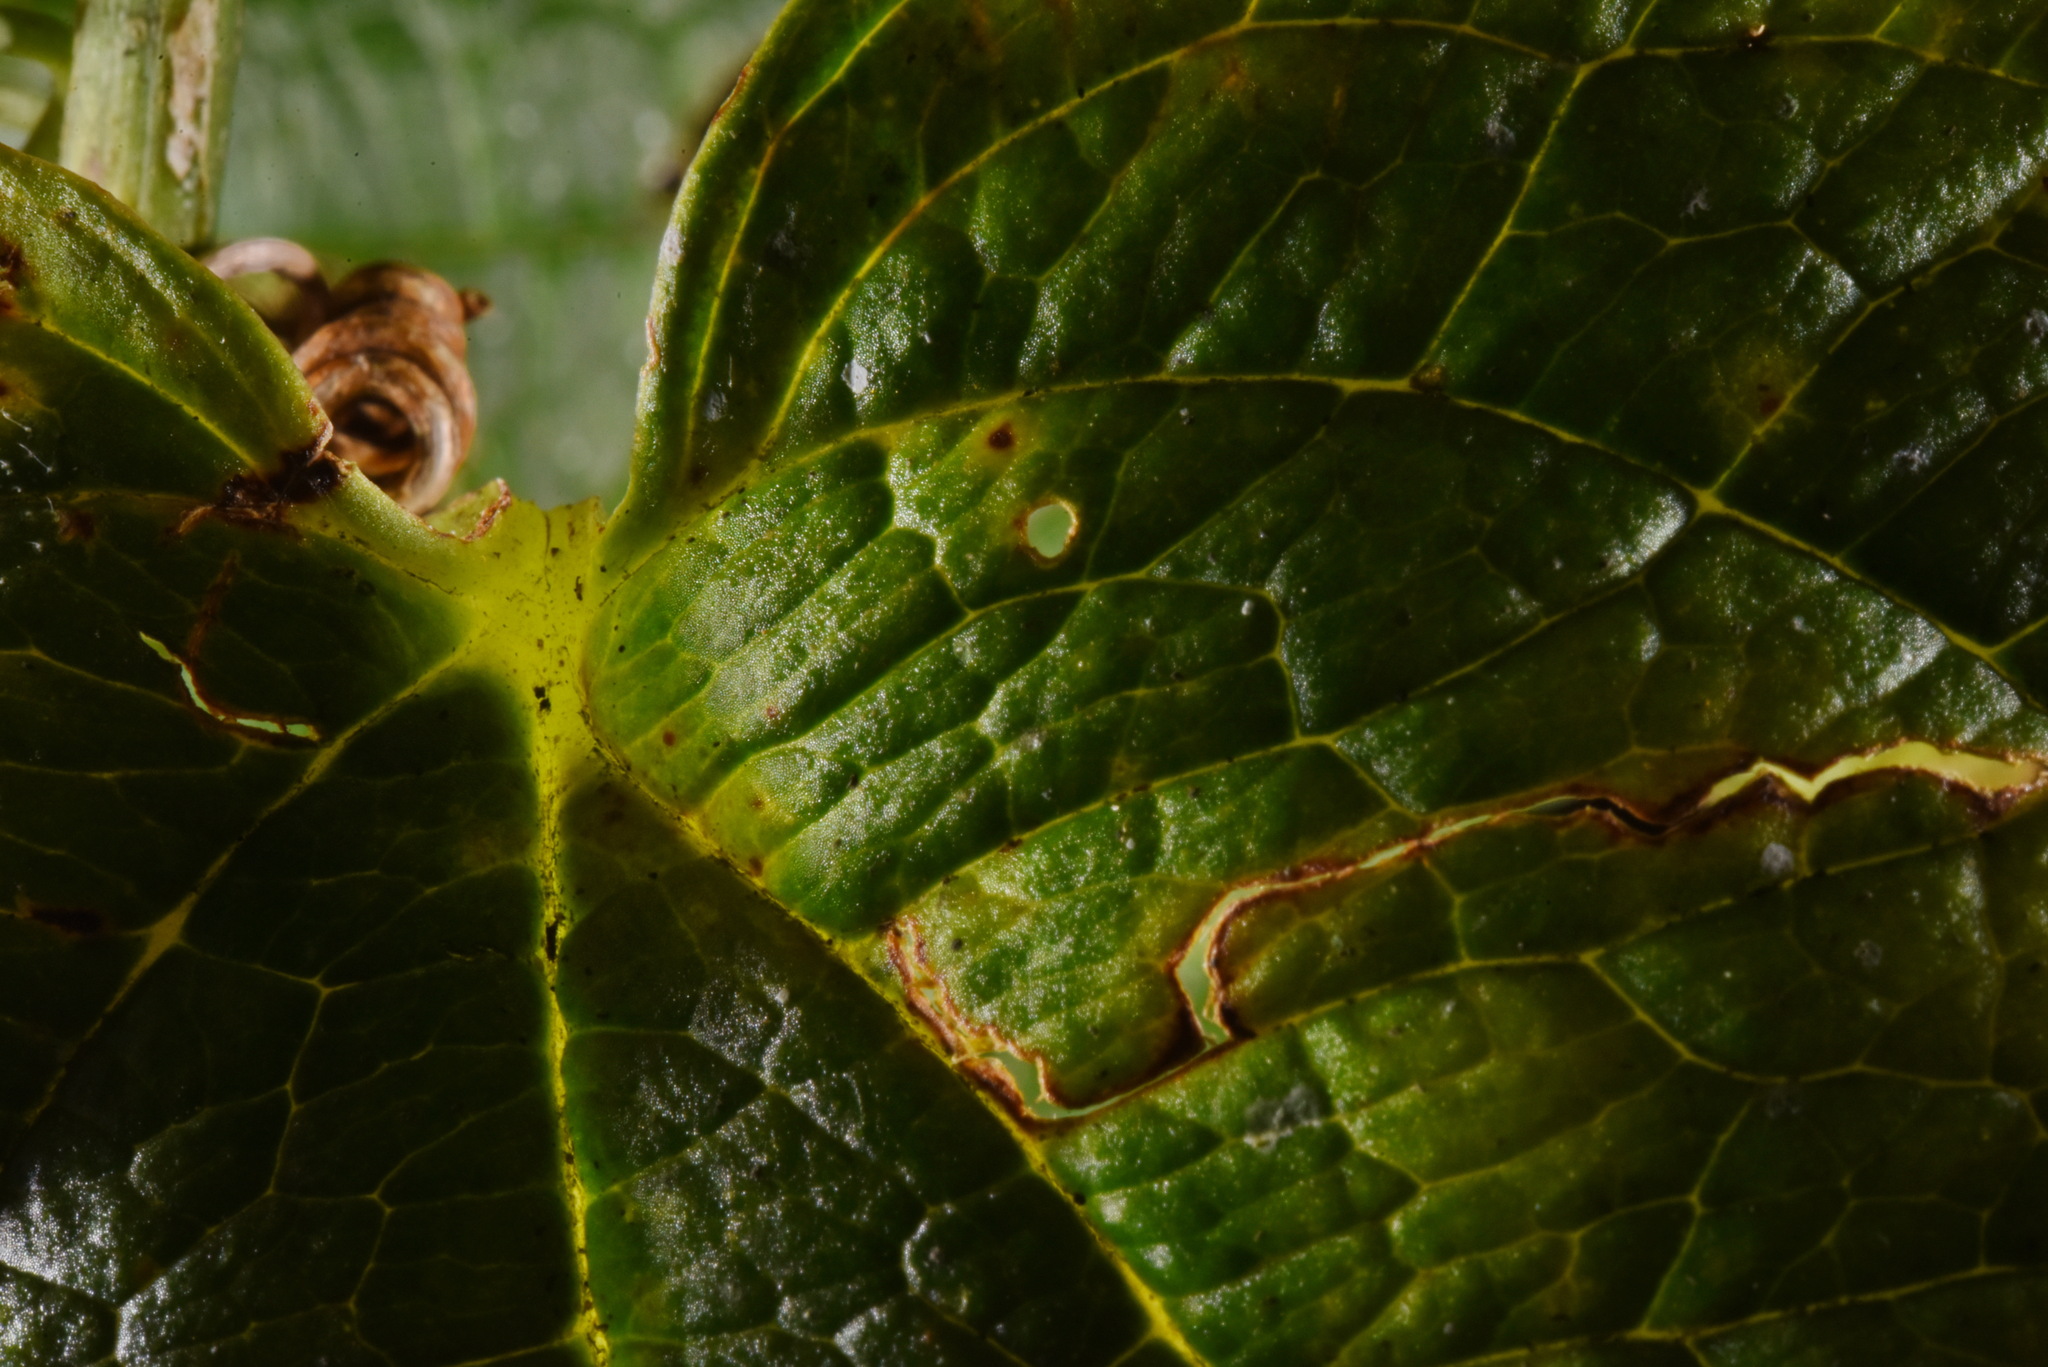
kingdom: Plantae
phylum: Tracheophyta
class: Liliopsida
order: Liliales
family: Smilacaceae
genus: Smilax
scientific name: Smilax riparia
